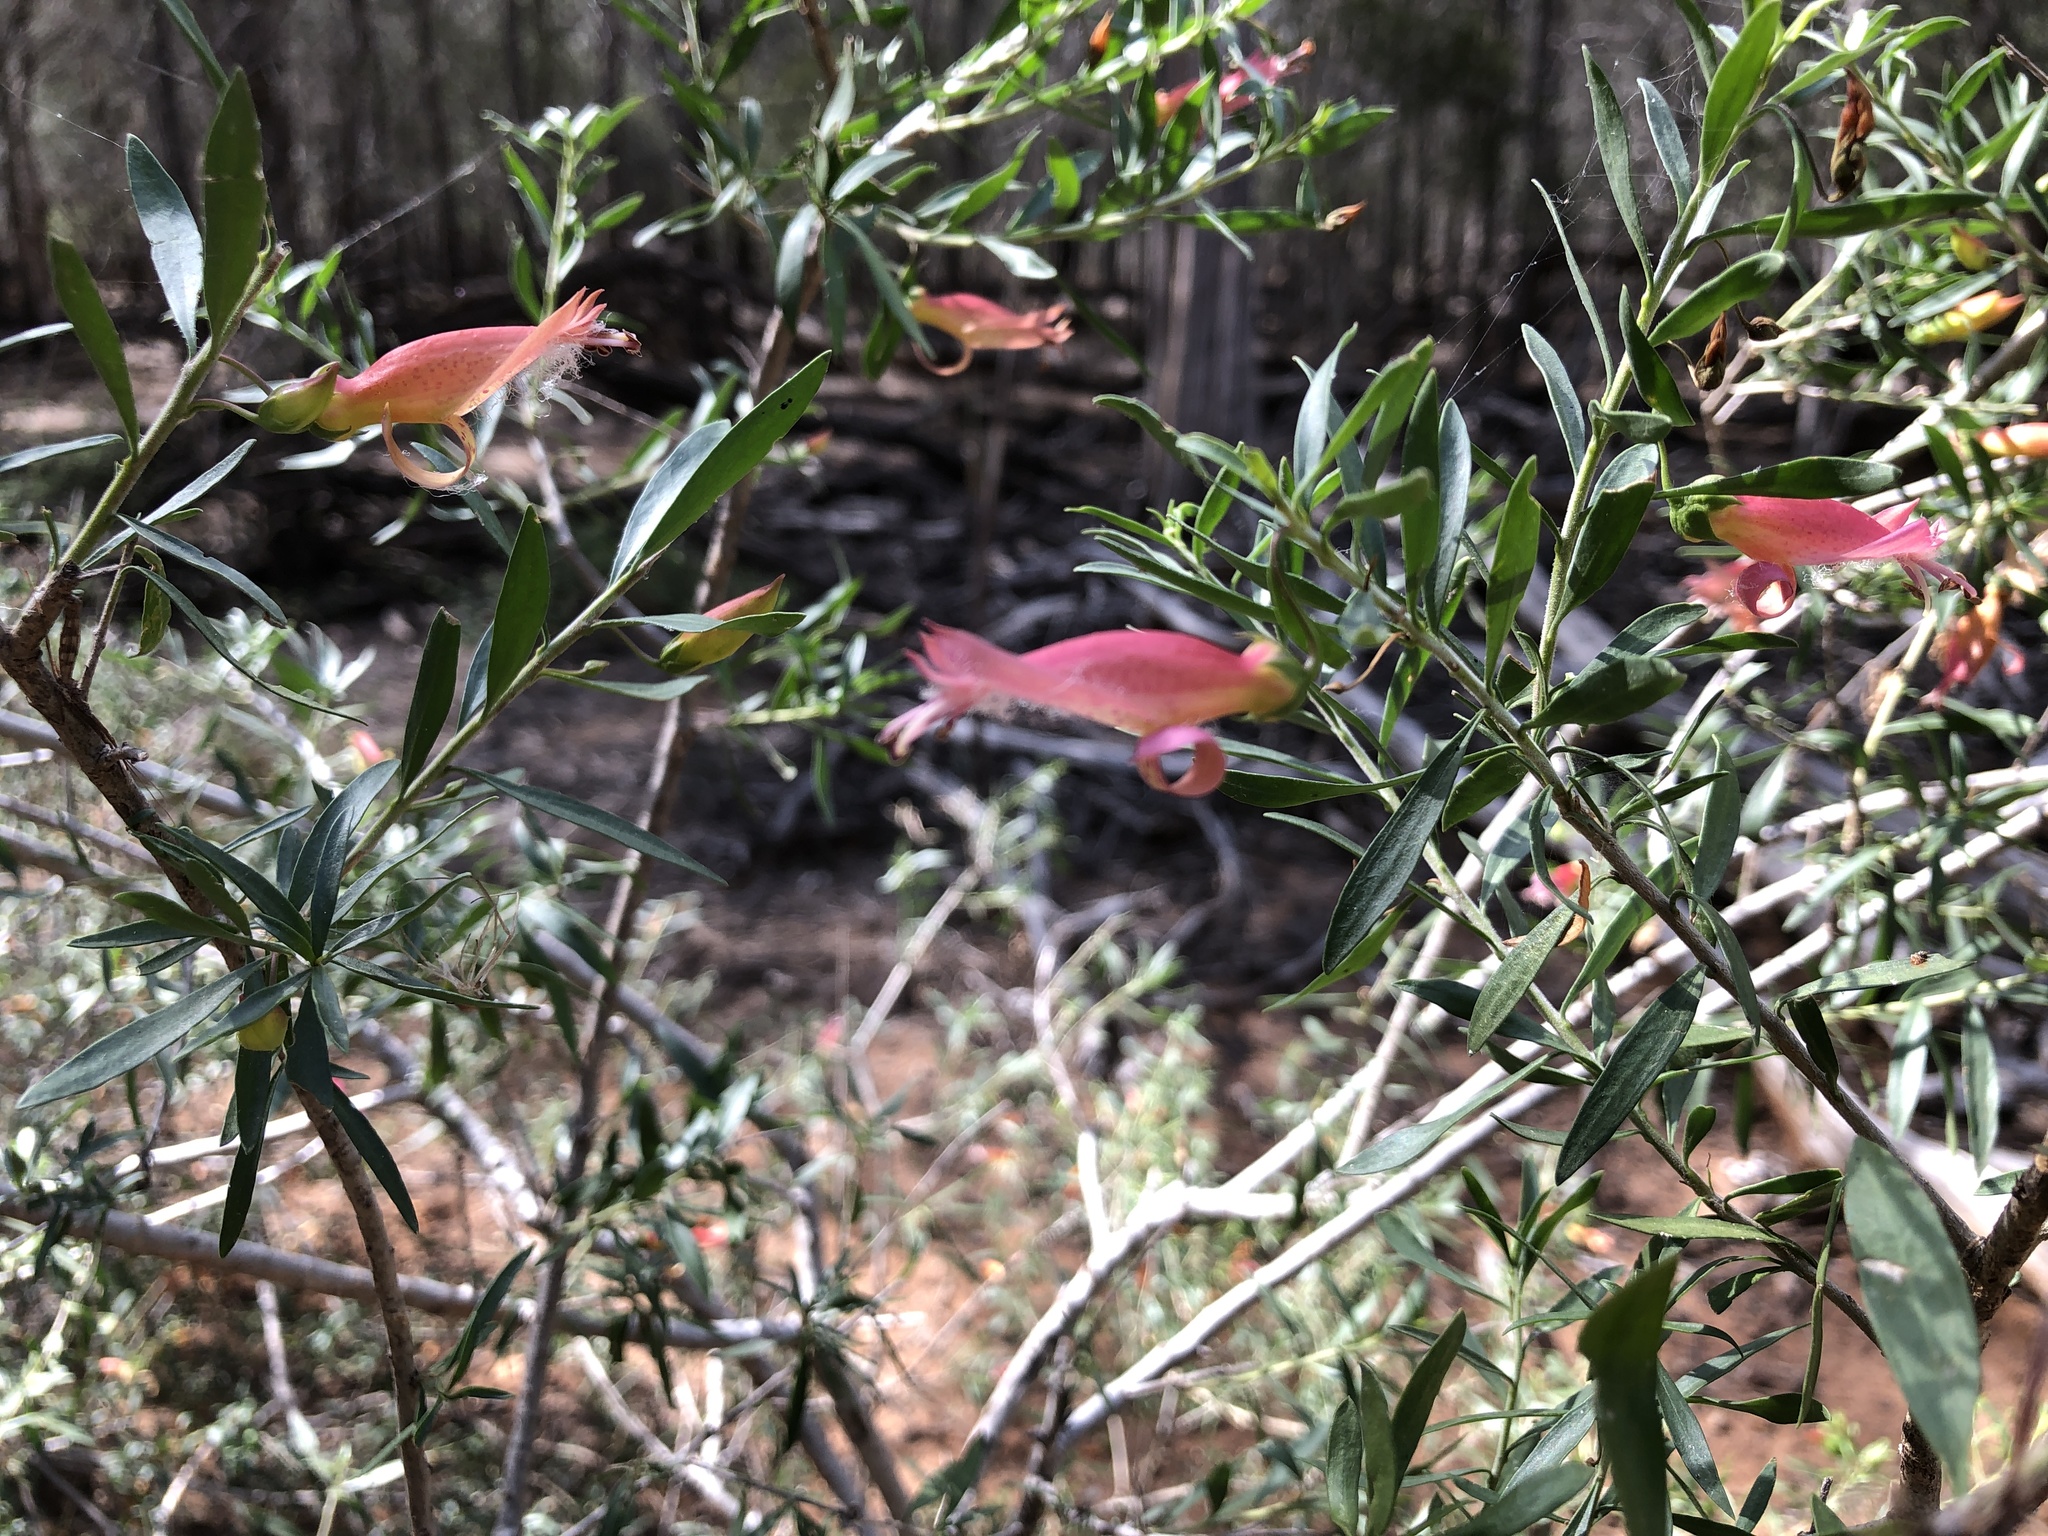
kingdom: Plantae
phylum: Tracheophyta
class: Magnoliopsida
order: Lamiales
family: Scrophulariaceae
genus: Eremophila
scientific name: Eremophila maculata
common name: Fuchsiabush
